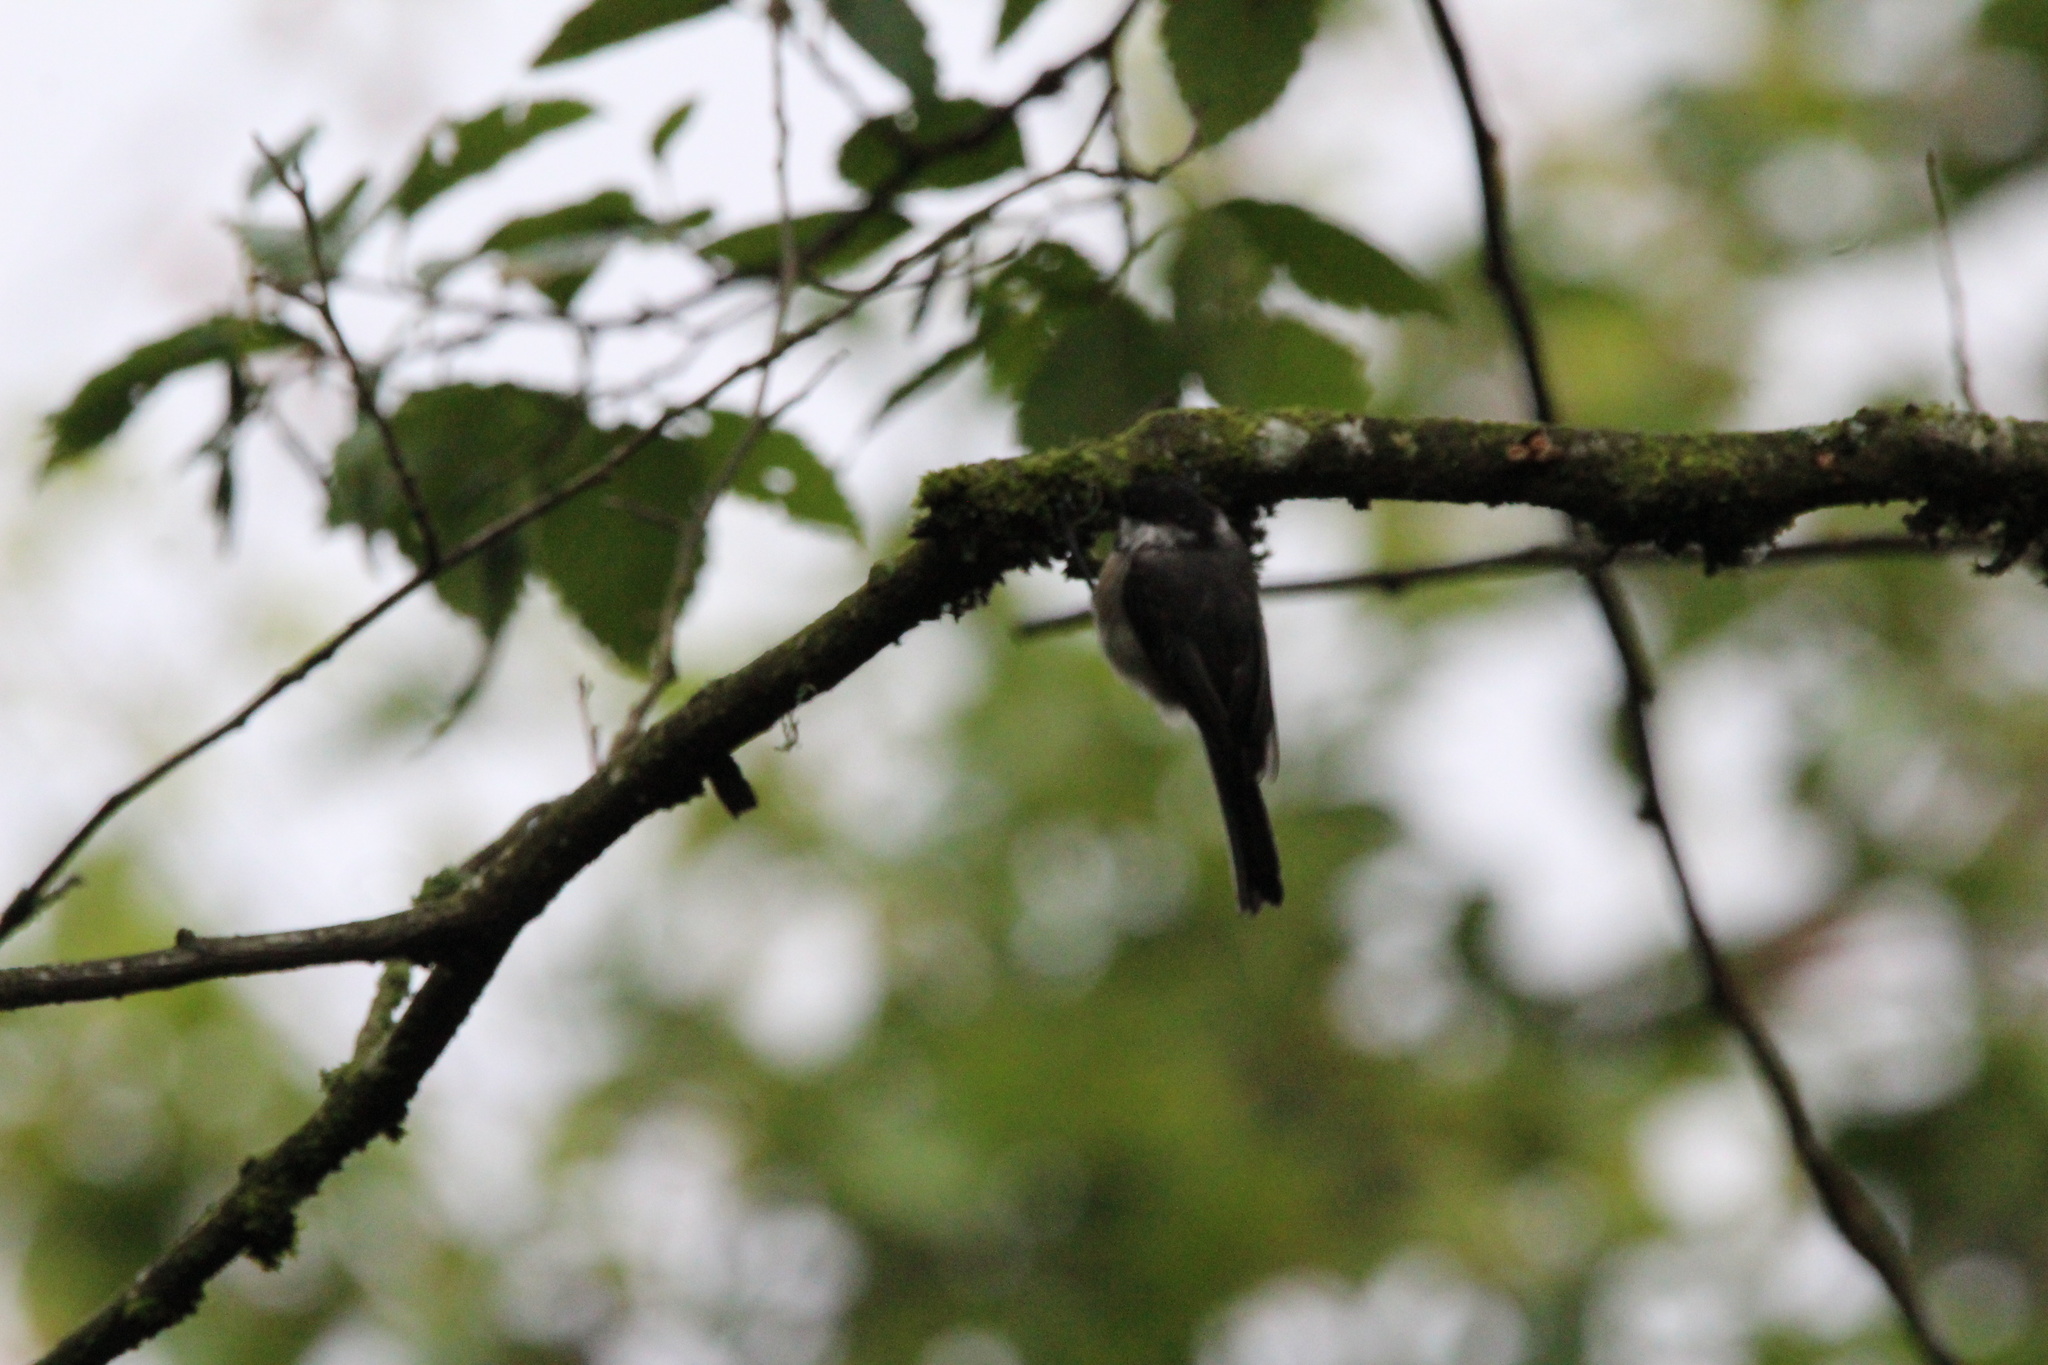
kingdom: Animalia
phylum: Chordata
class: Aves
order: Passeriformes
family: Paridae
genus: Poecile
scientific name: Poecile atricapillus
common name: Black-capped chickadee
